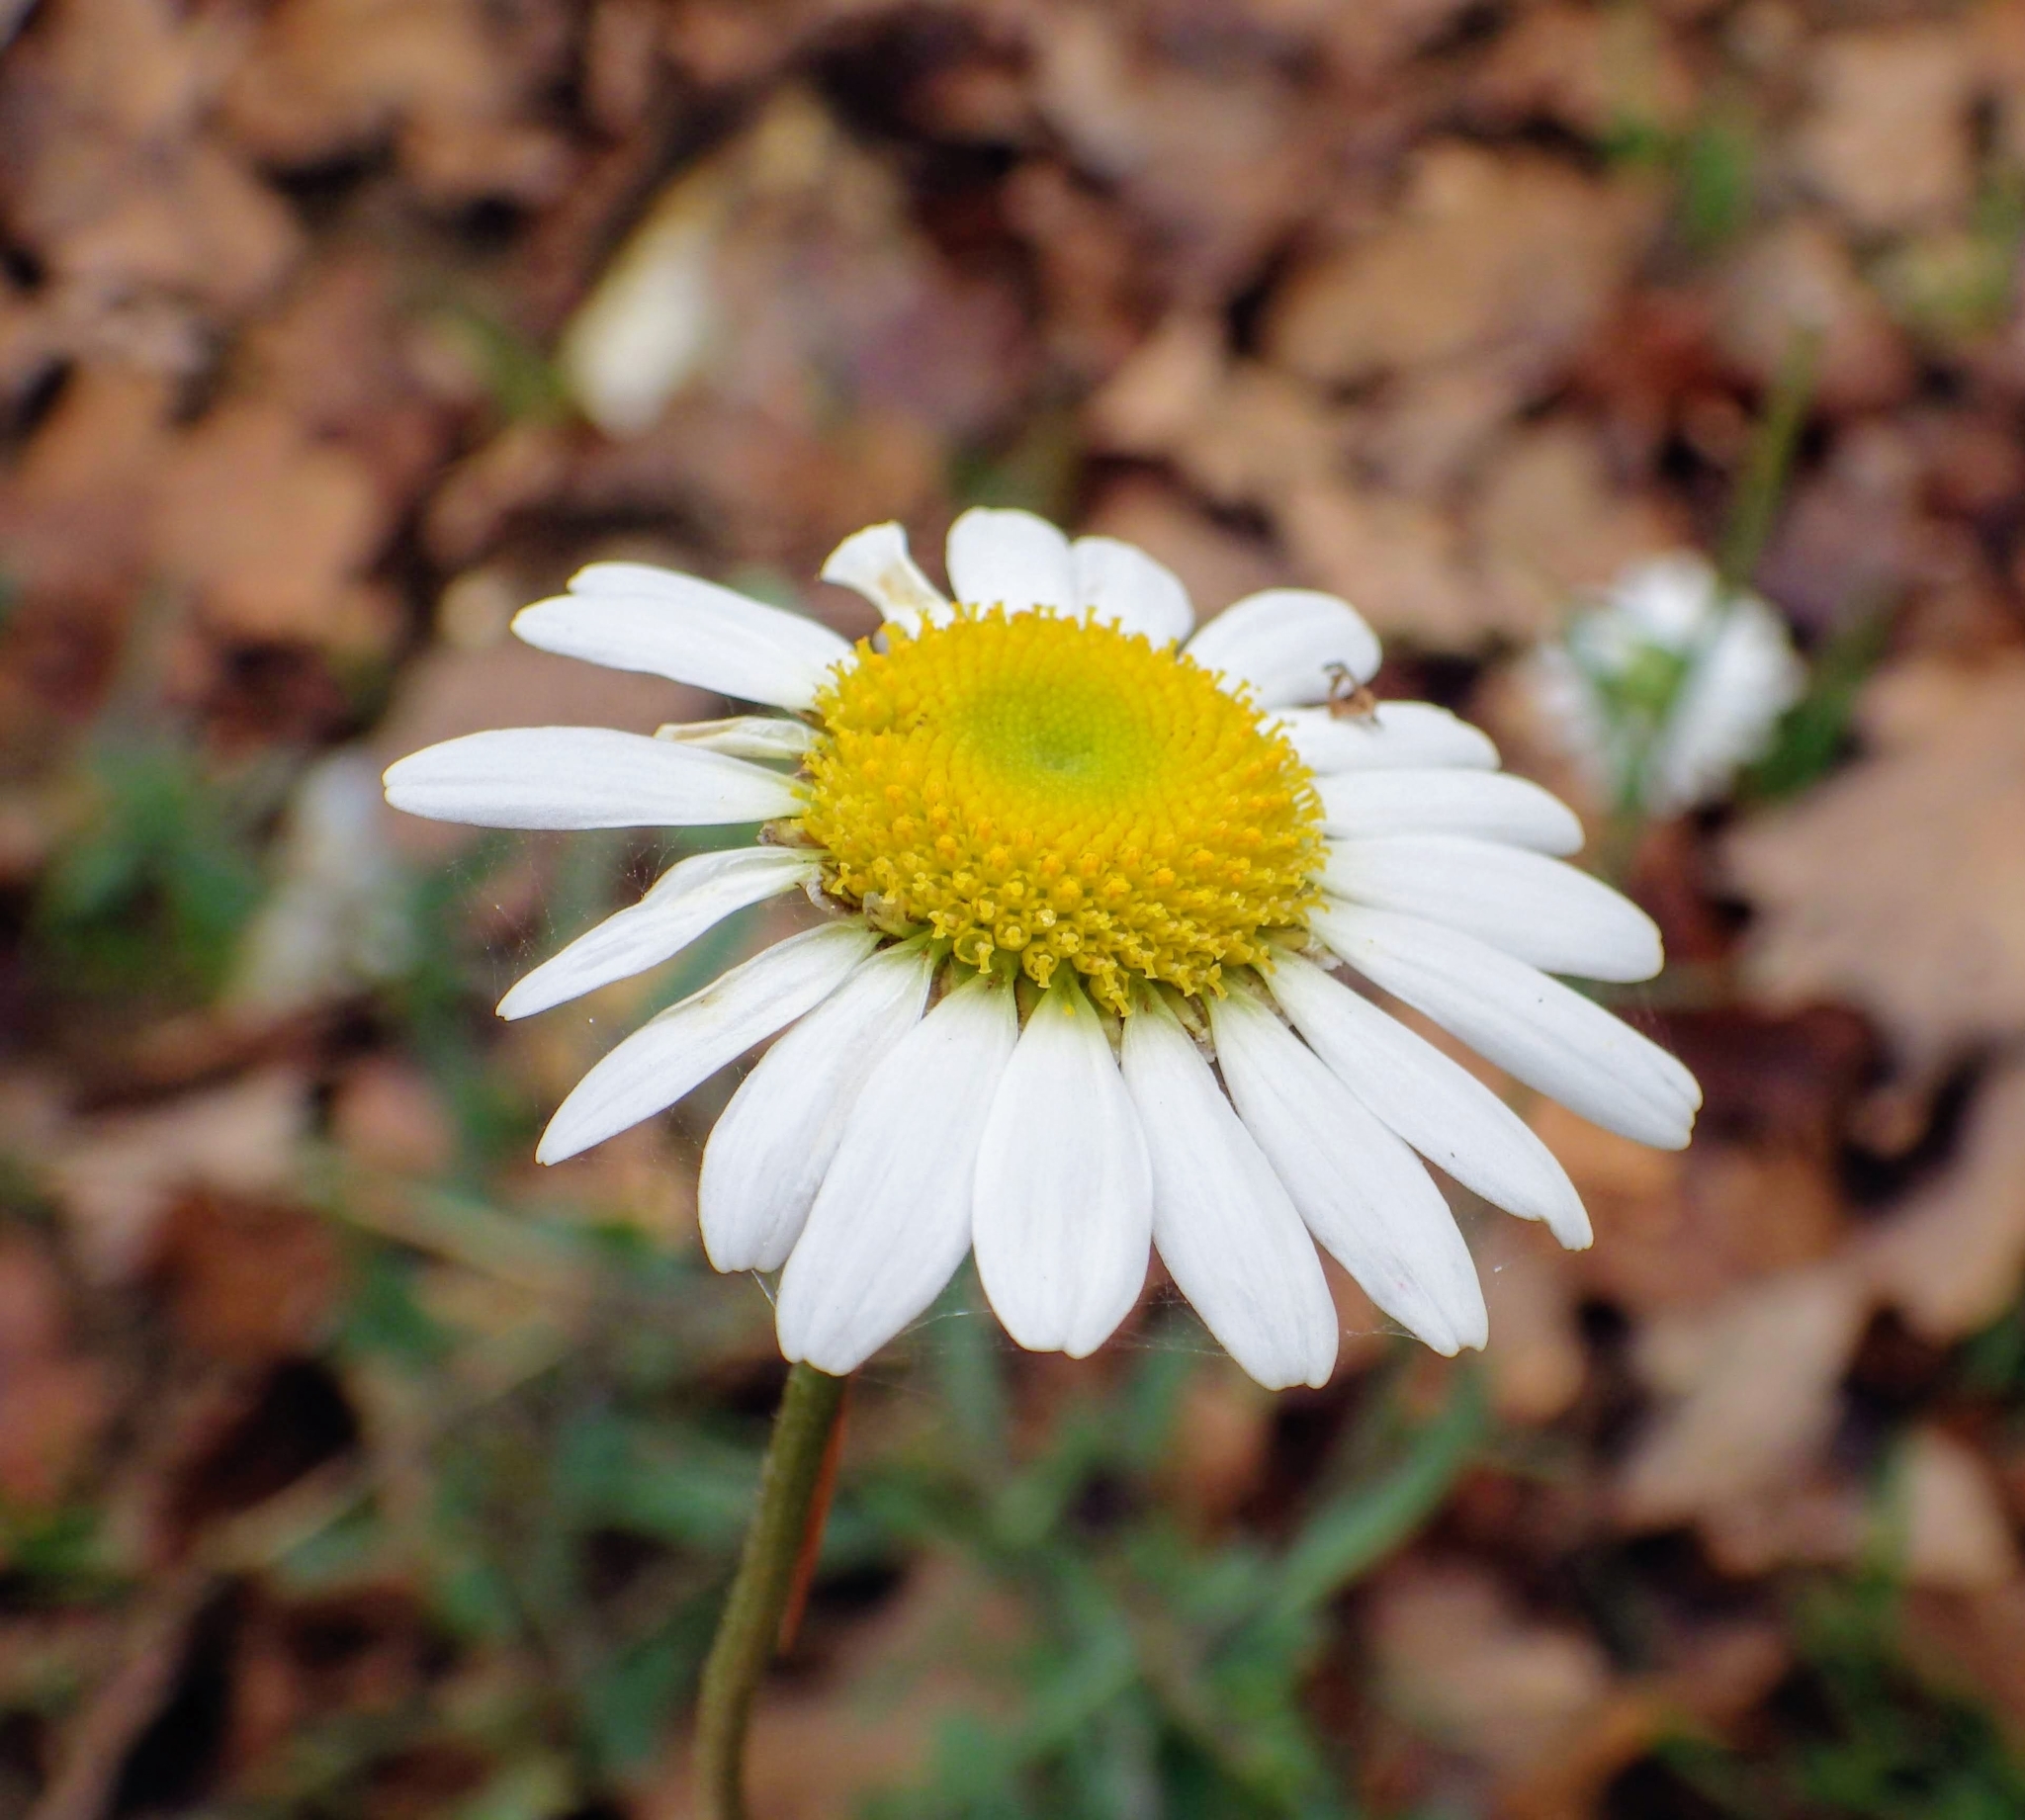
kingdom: Plantae
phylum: Tracheophyta
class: Magnoliopsida
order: Asterales
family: Asteraceae
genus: Leucanthemum
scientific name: Leucanthemum vulgare
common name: Oxeye daisy
